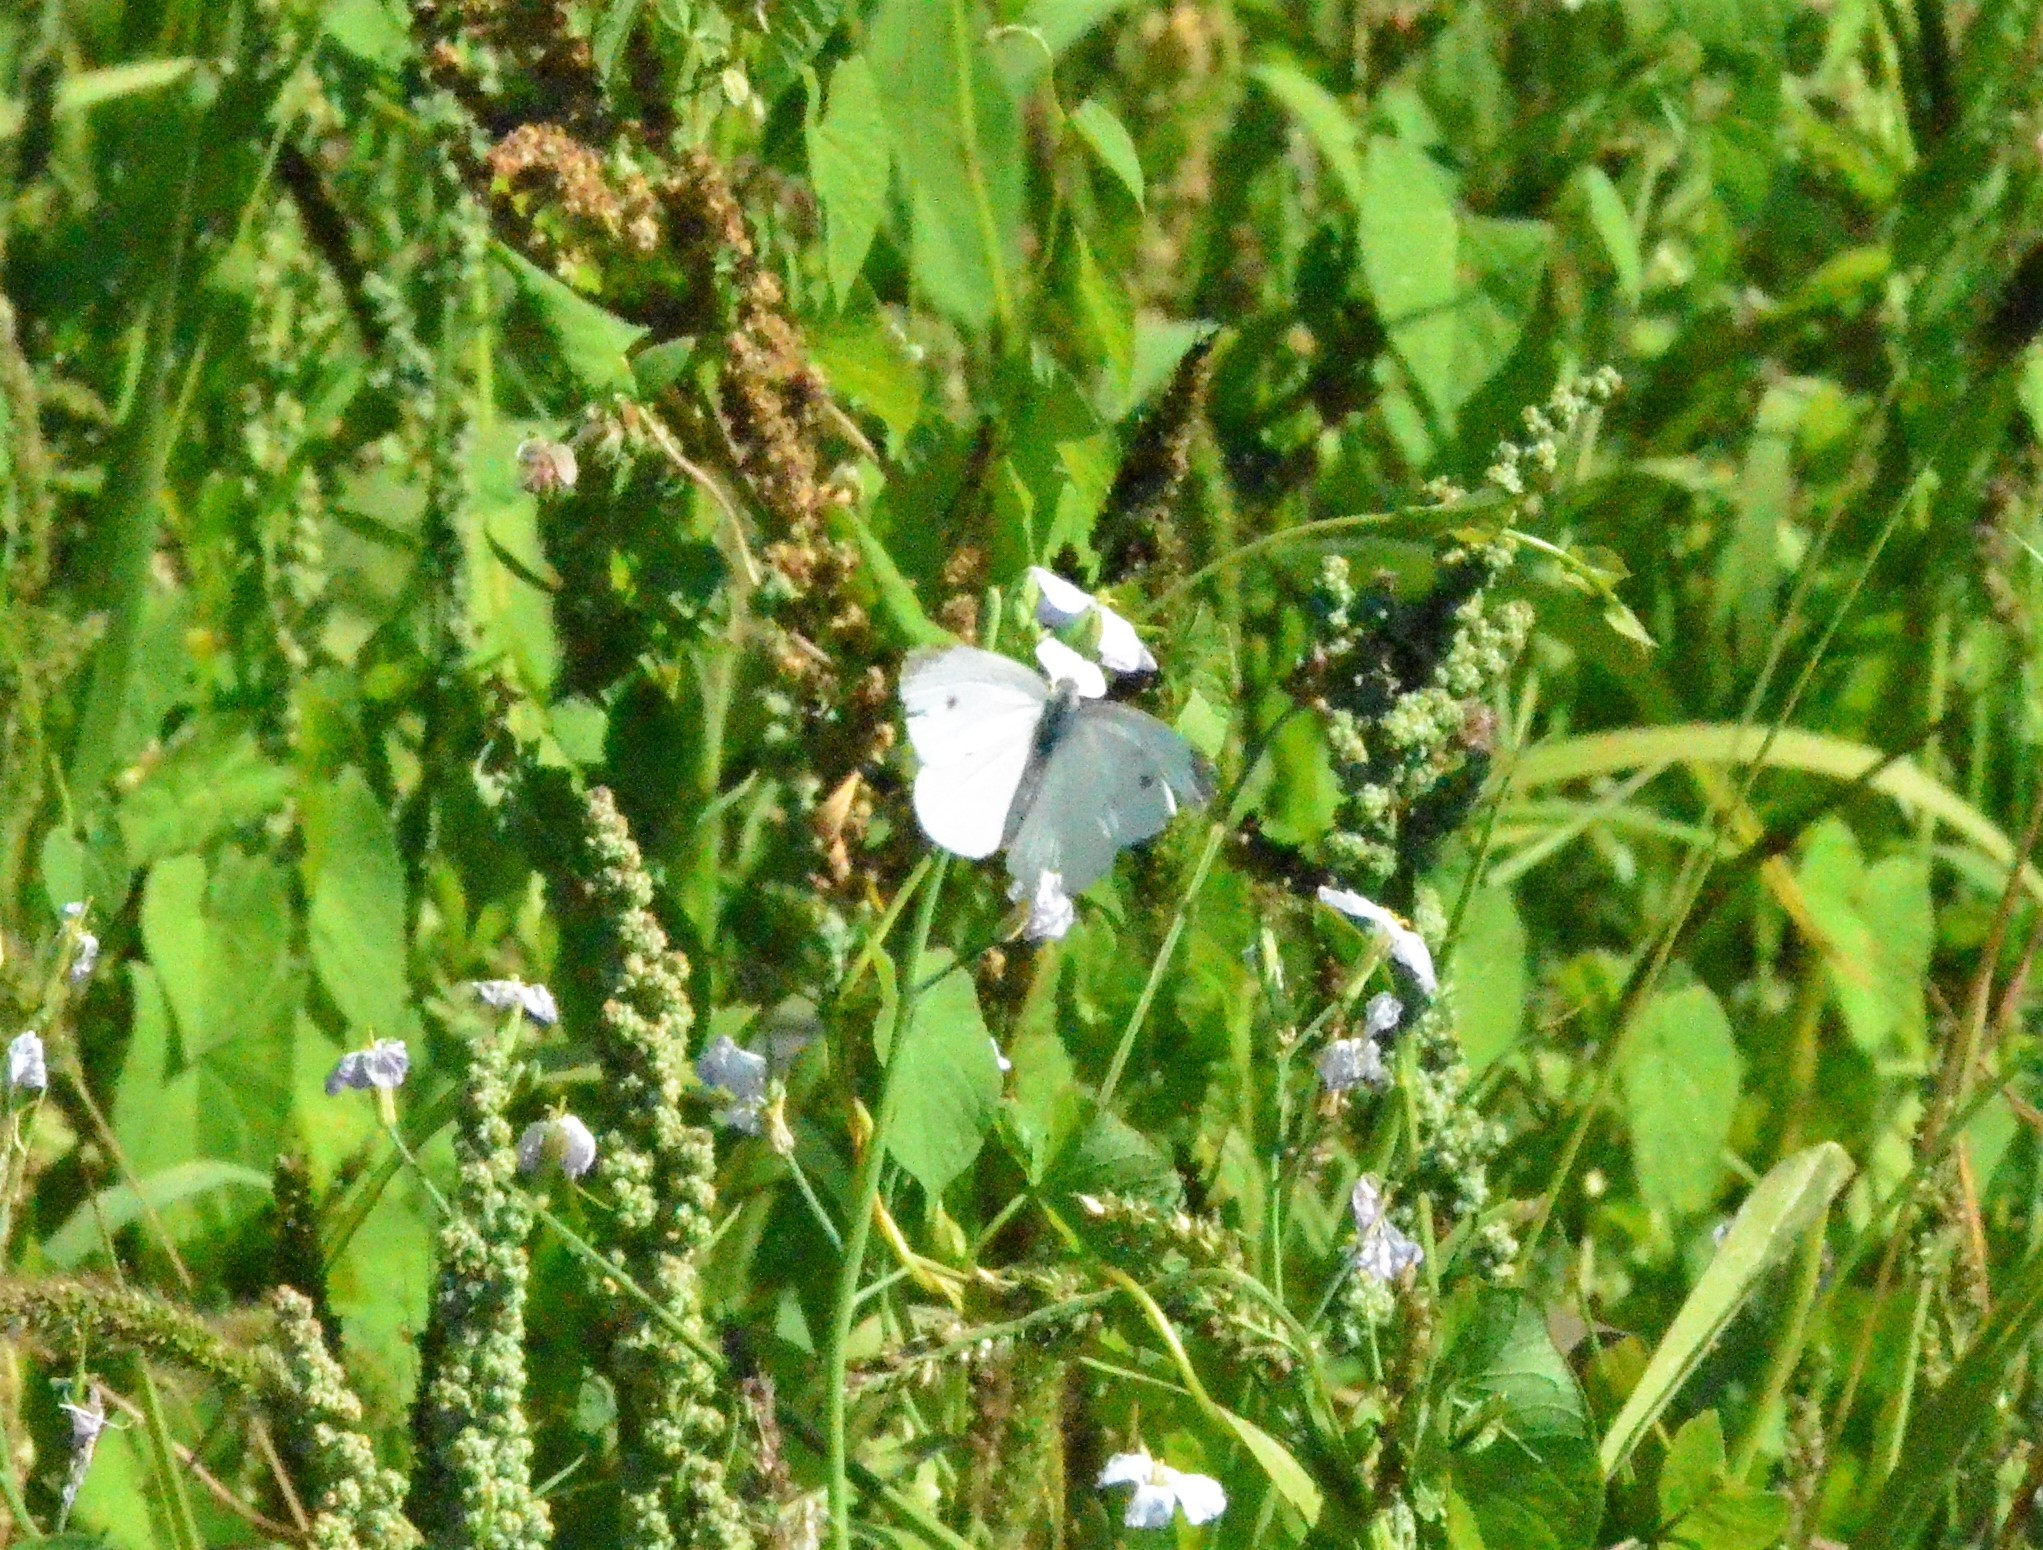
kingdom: Animalia
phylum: Arthropoda
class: Insecta
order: Lepidoptera
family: Pieridae
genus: Pieris
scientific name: Pieris rapae
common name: Small white
